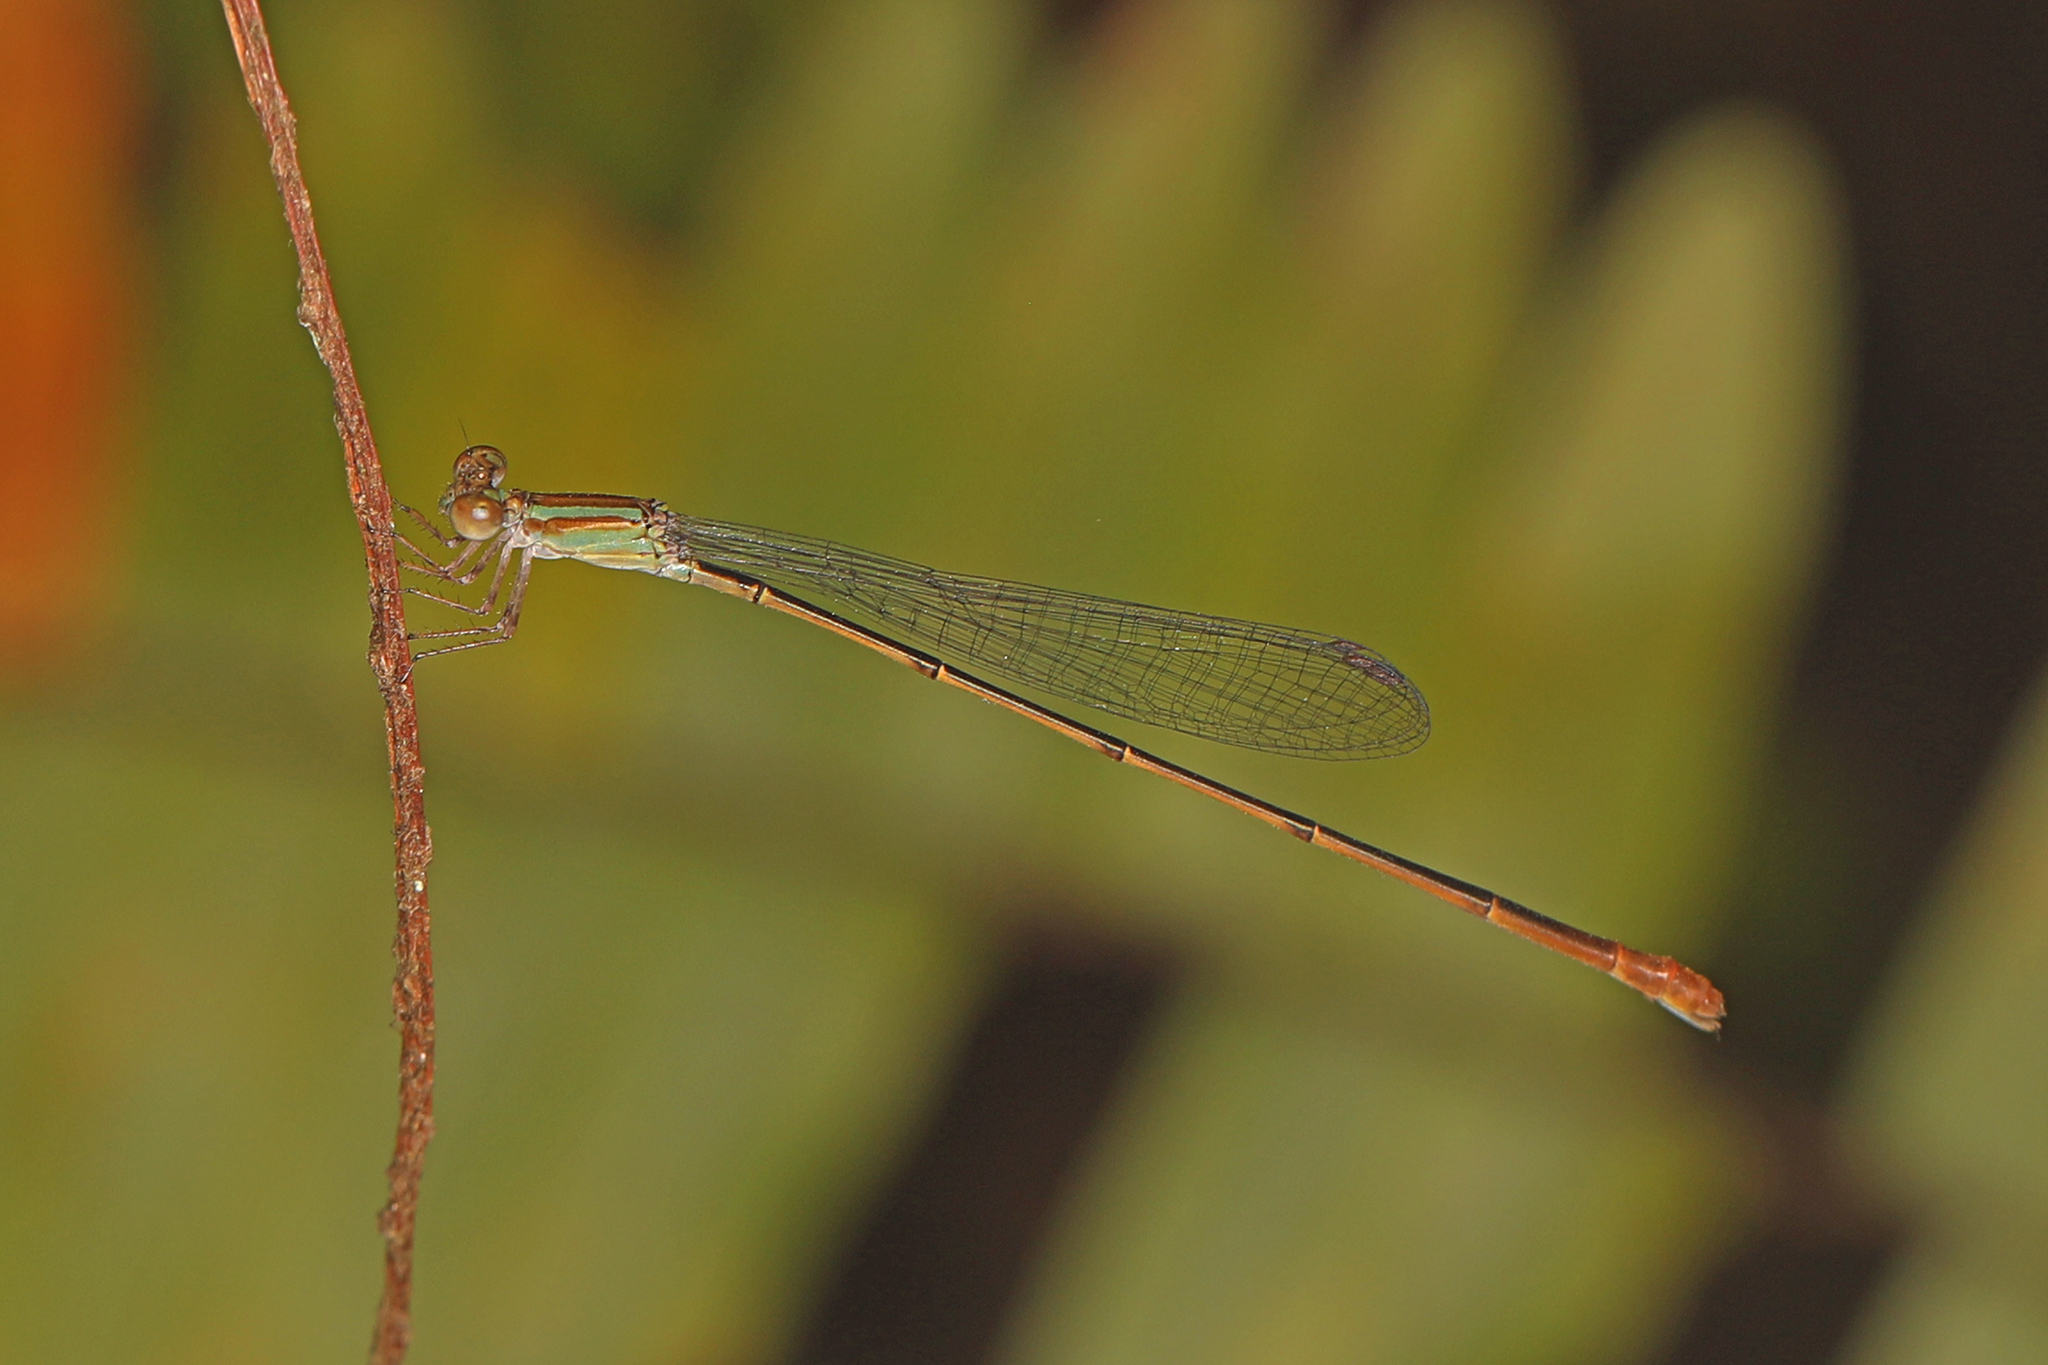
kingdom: Animalia
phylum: Arthropoda
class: Insecta
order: Odonata
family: Coenagrionidae
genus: Leptobasis
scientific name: Leptobasis lucifer
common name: Lucifer swampdamsel
